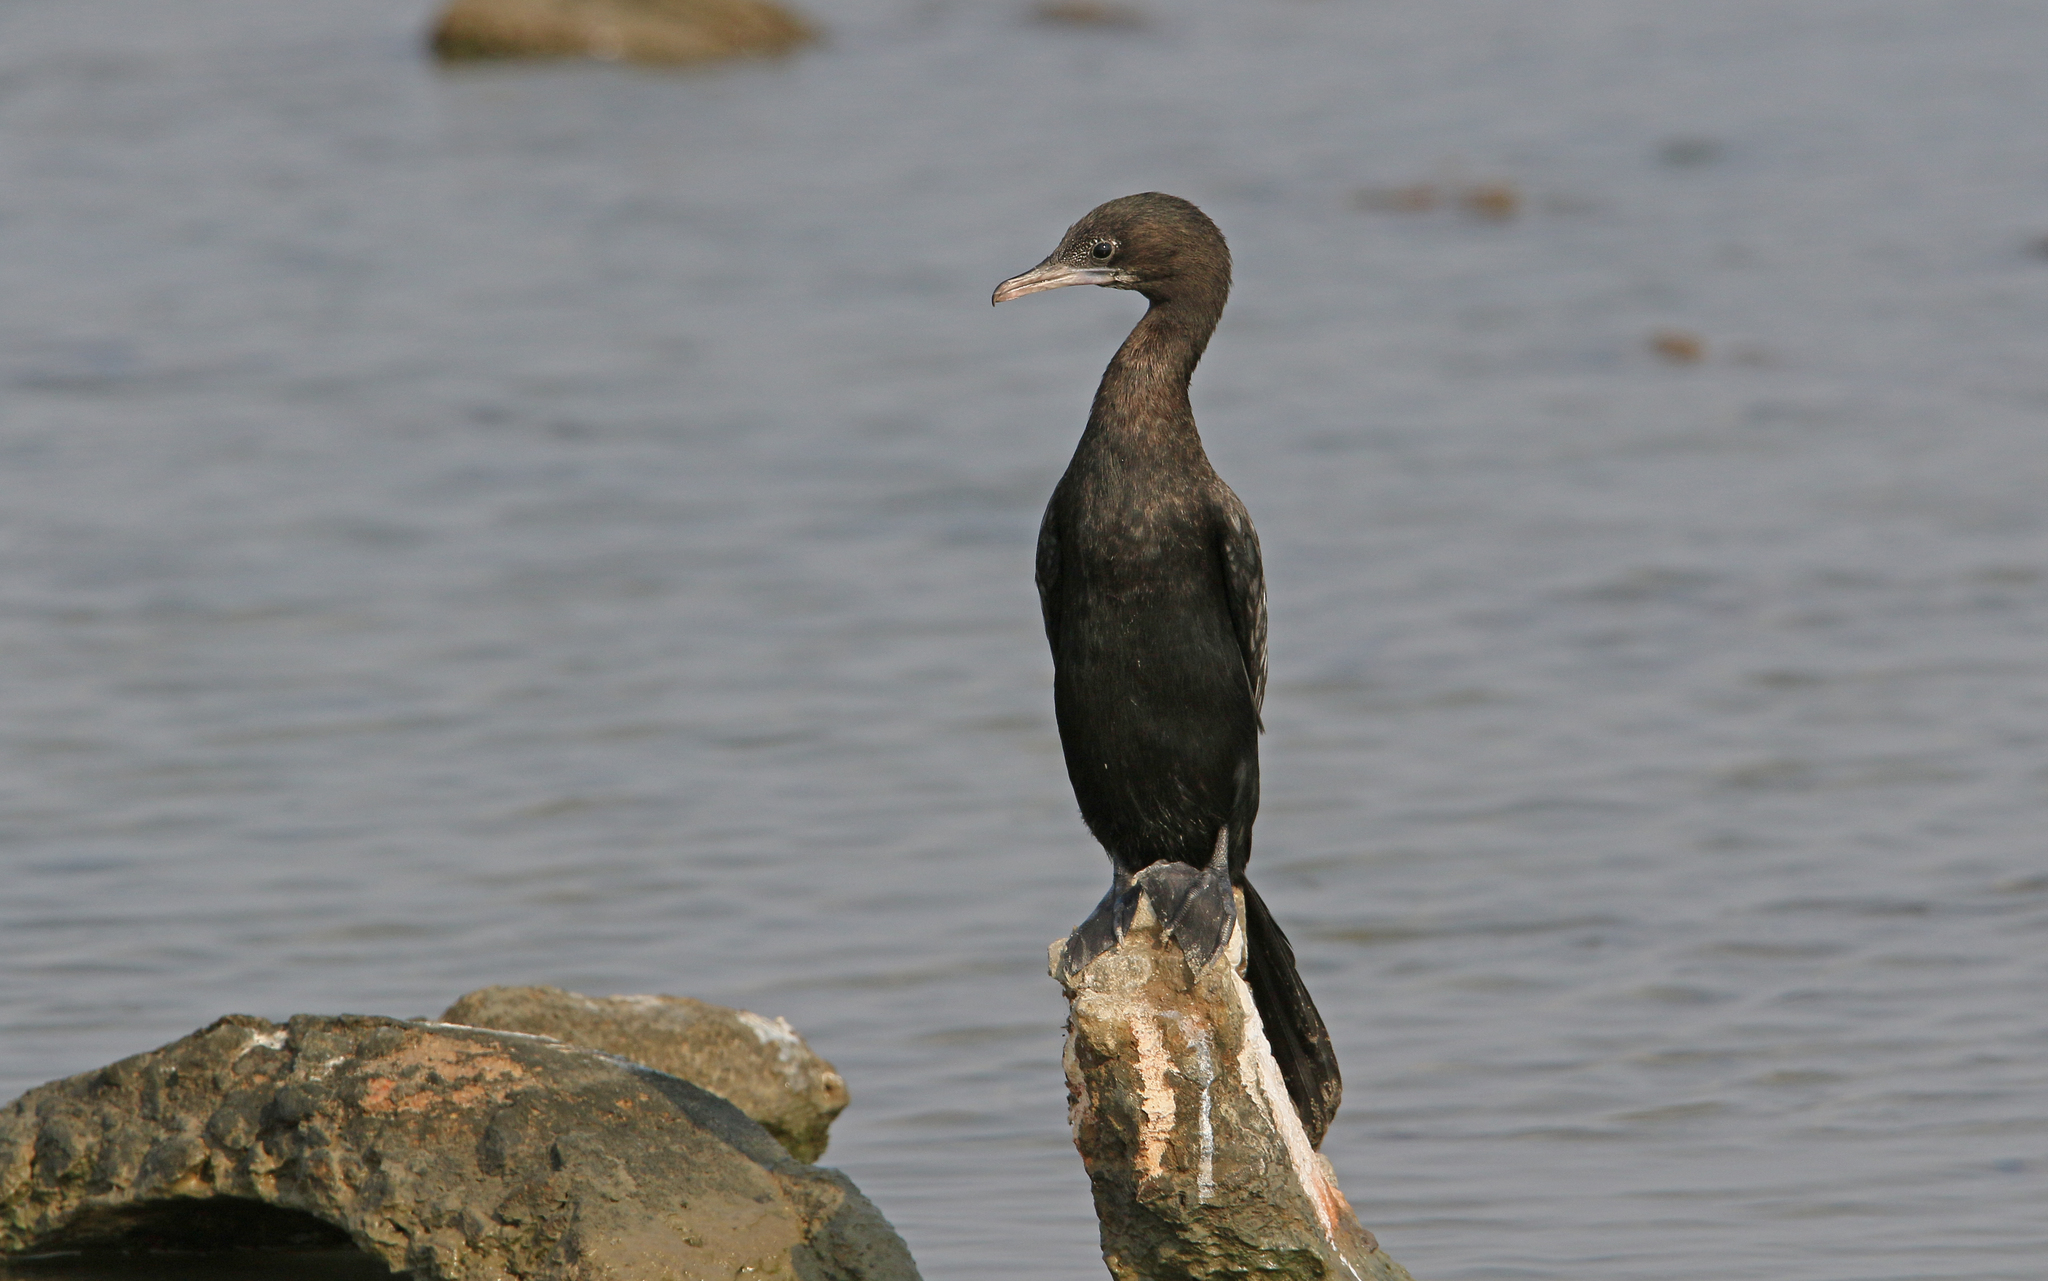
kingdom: Animalia
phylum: Chordata
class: Aves
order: Suliformes
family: Phalacrocoracidae
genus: Microcarbo
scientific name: Microcarbo niger
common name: Little cormorant
